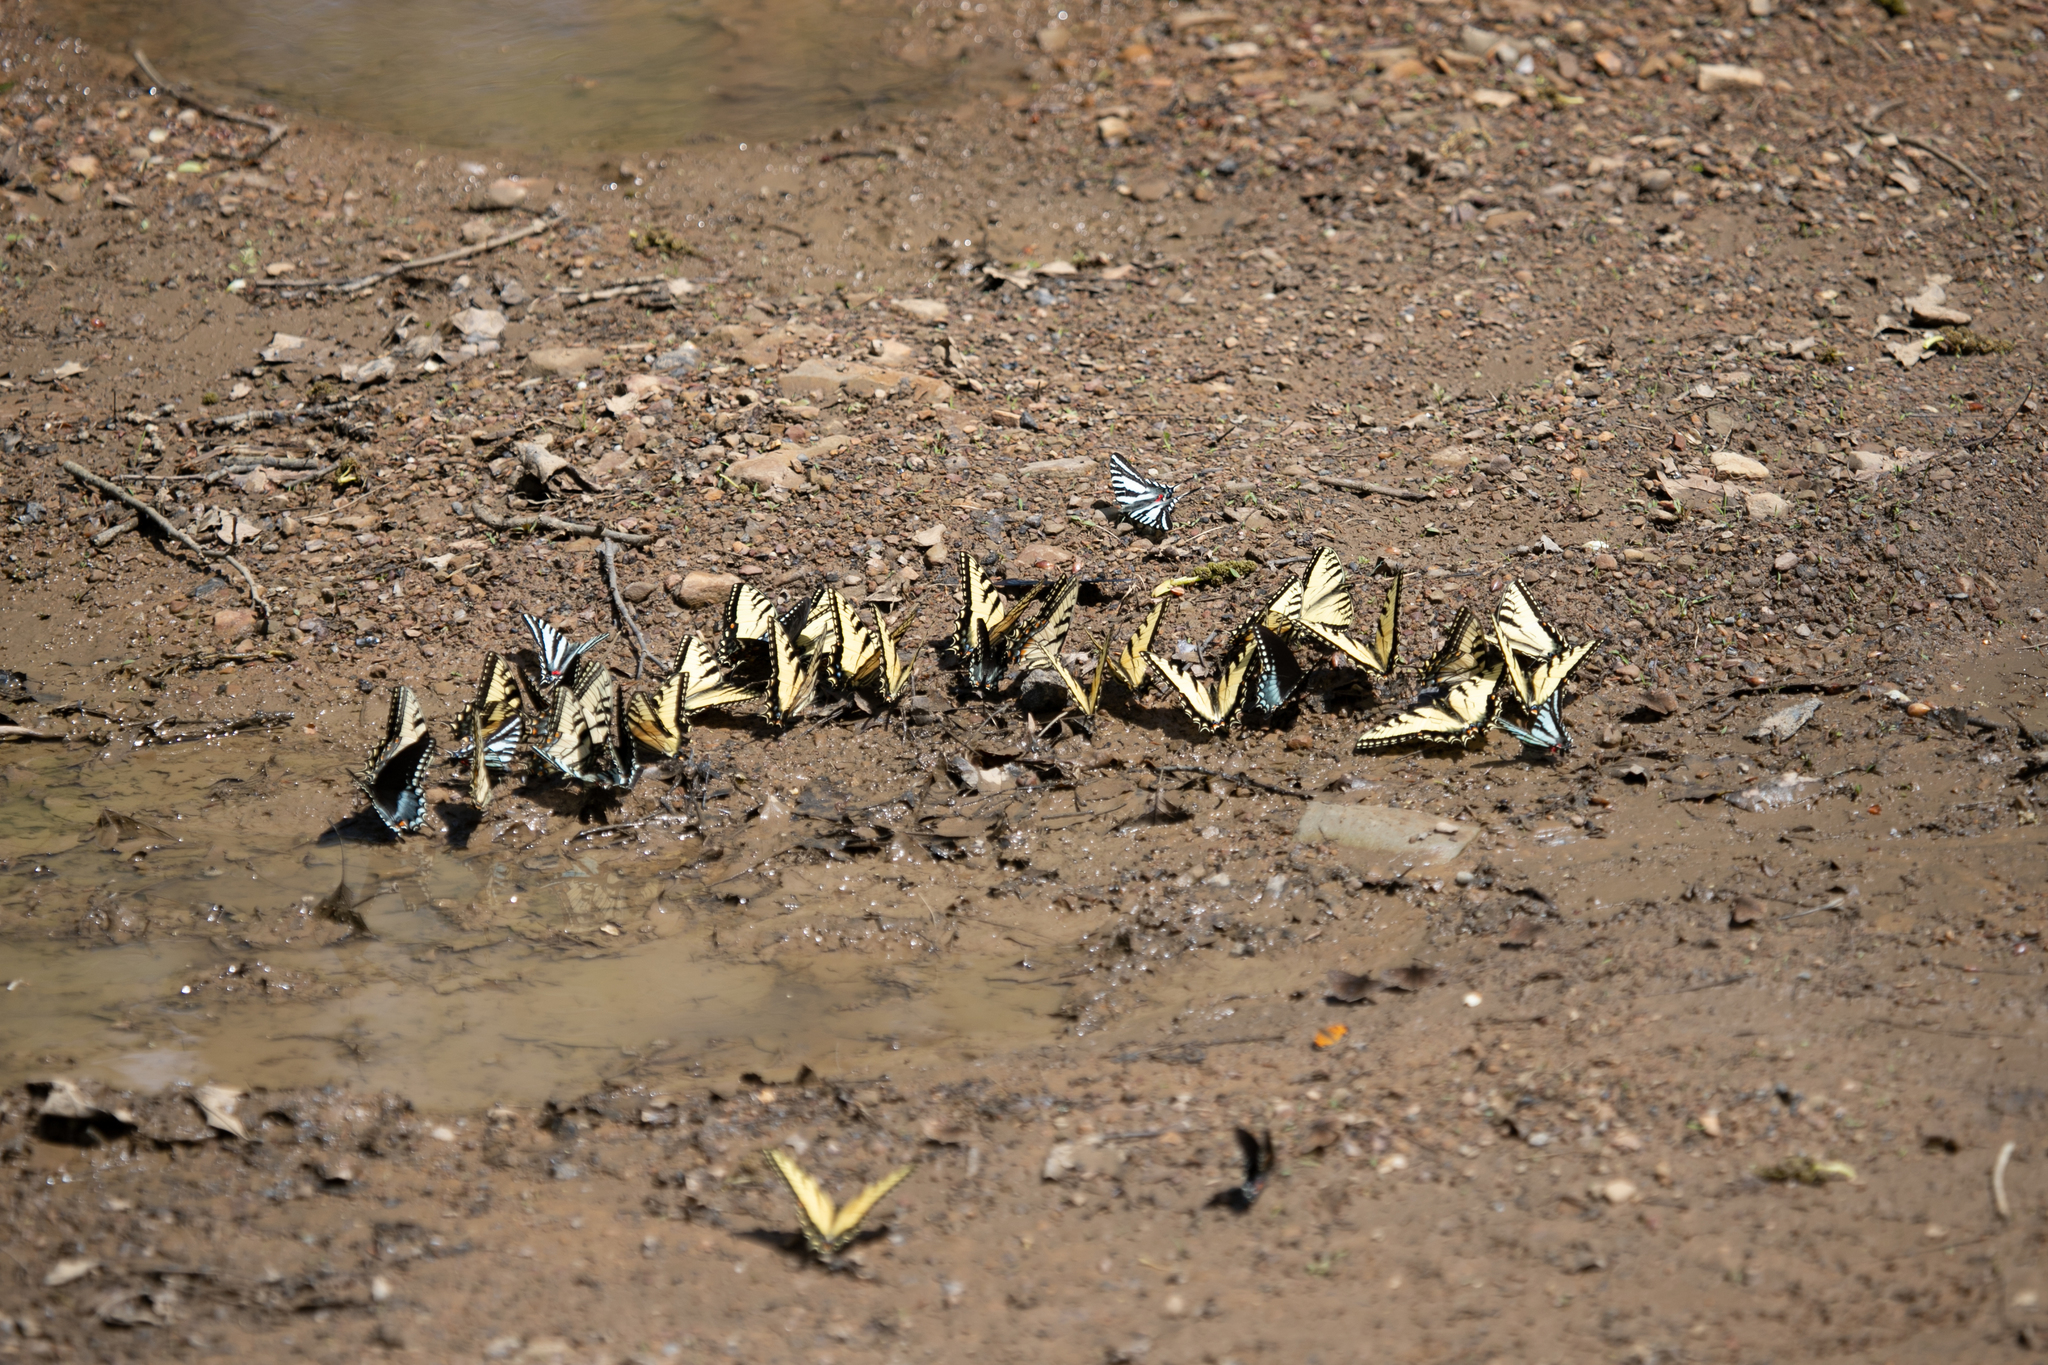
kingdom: Animalia
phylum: Arthropoda
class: Insecta
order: Lepidoptera
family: Papilionidae
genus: Papilio
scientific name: Papilio glaucus
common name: Tiger swallowtail
